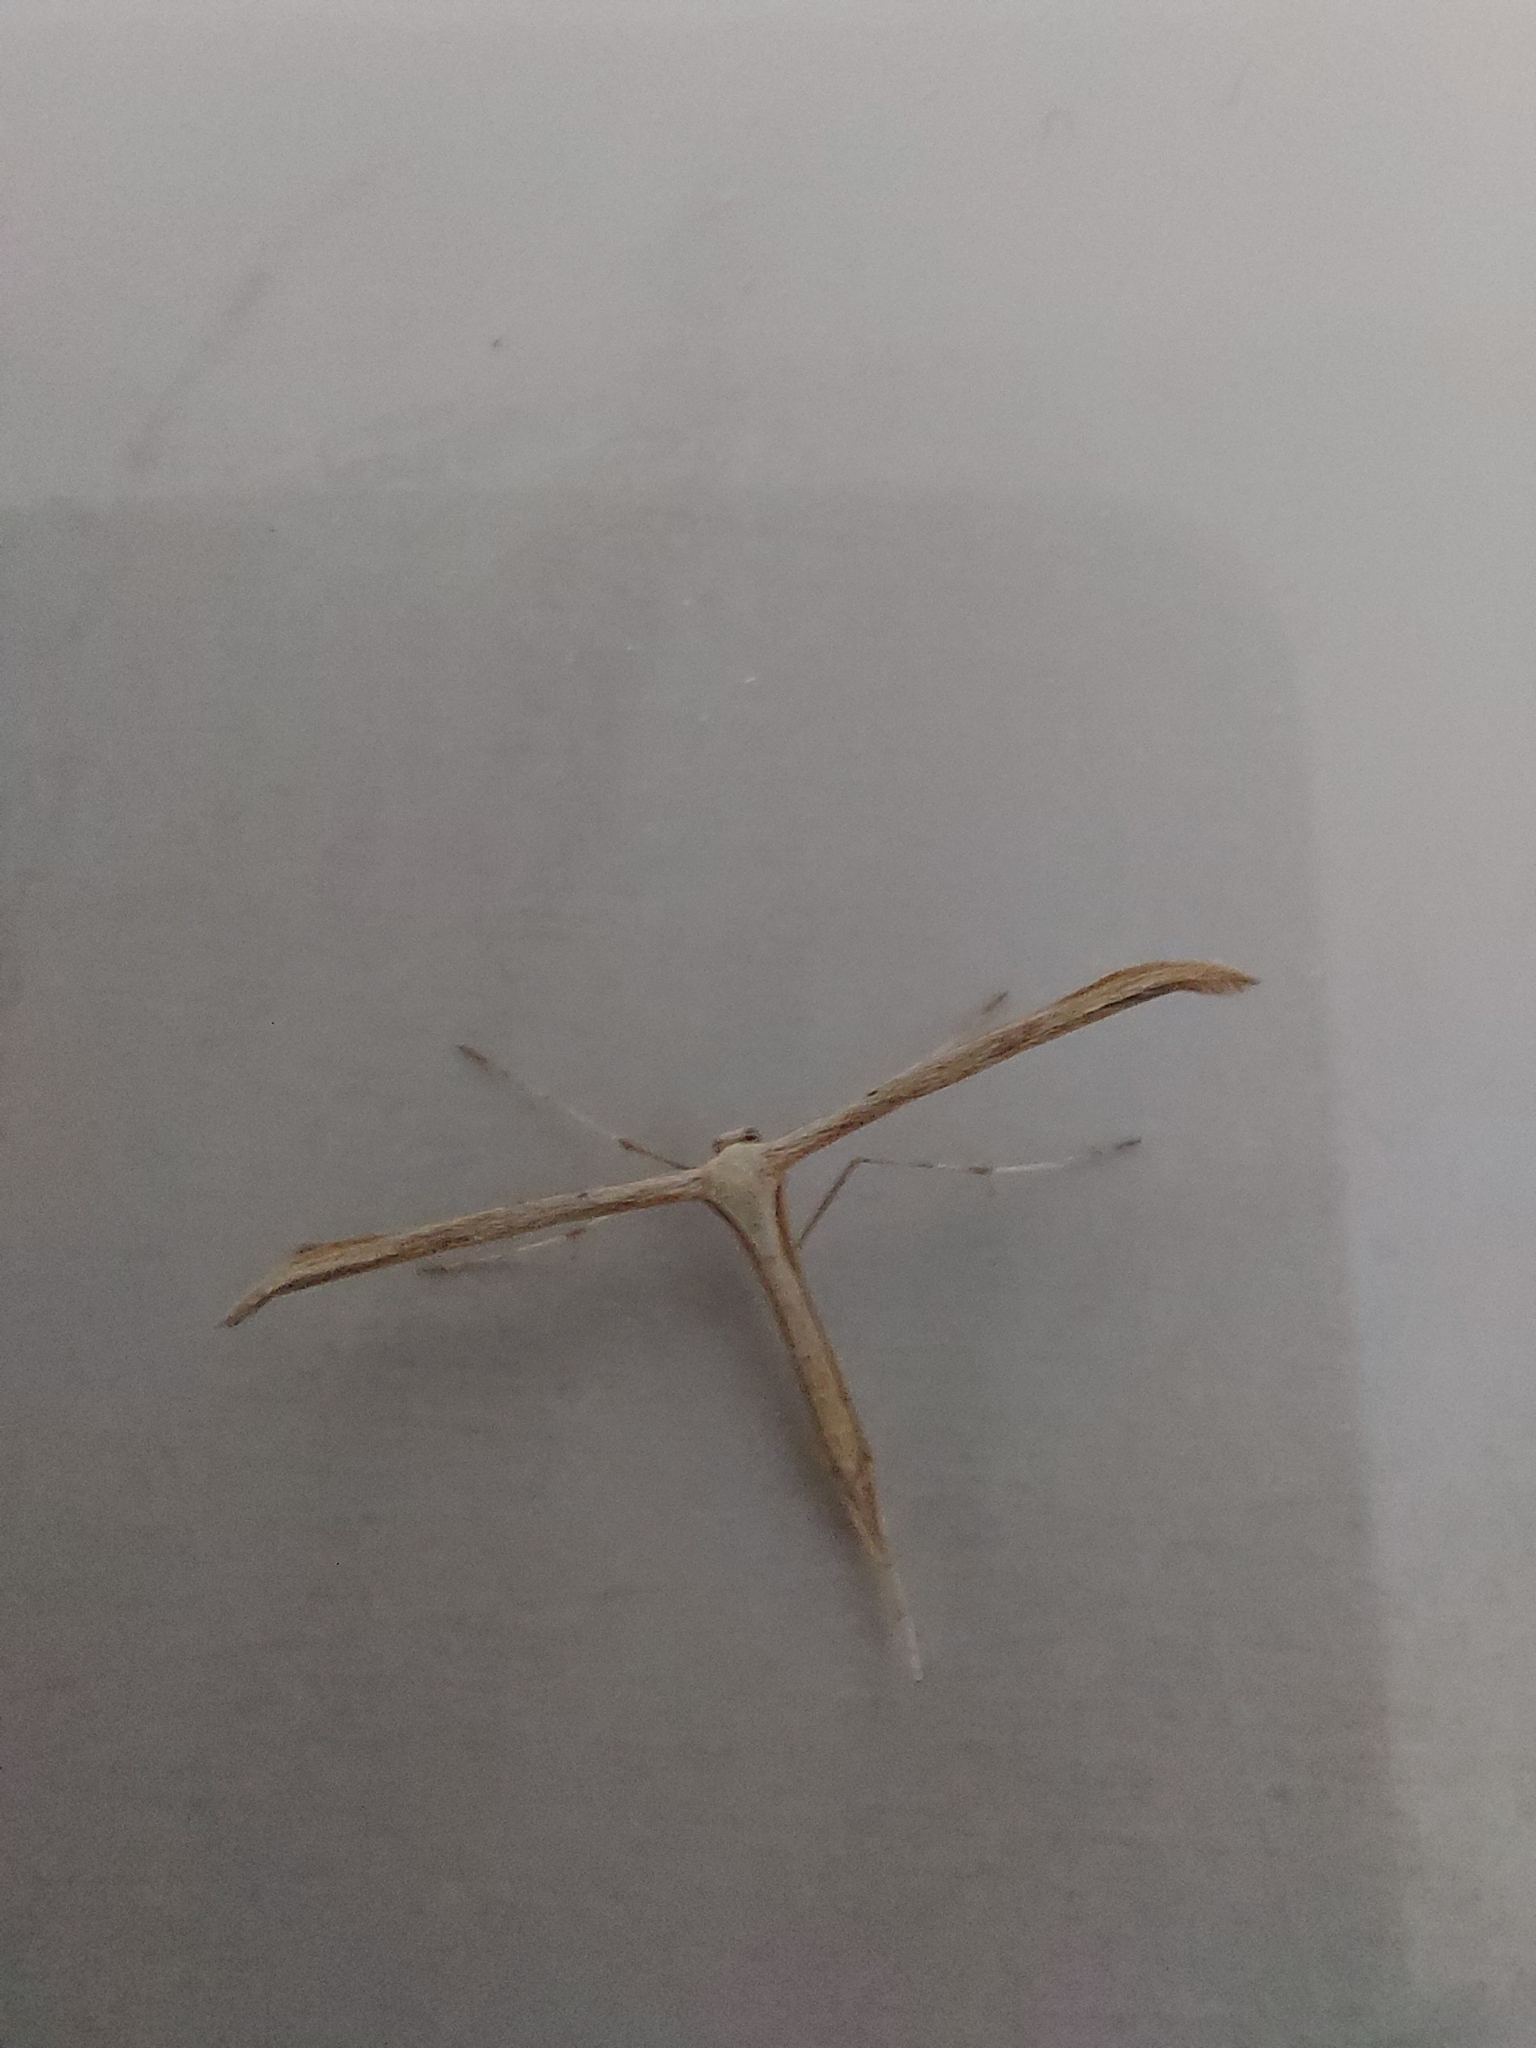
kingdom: Animalia
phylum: Arthropoda
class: Insecta
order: Lepidoptera
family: Pterophoridae
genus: Emmelina
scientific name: Emmelina monodactyla
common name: Common plume
